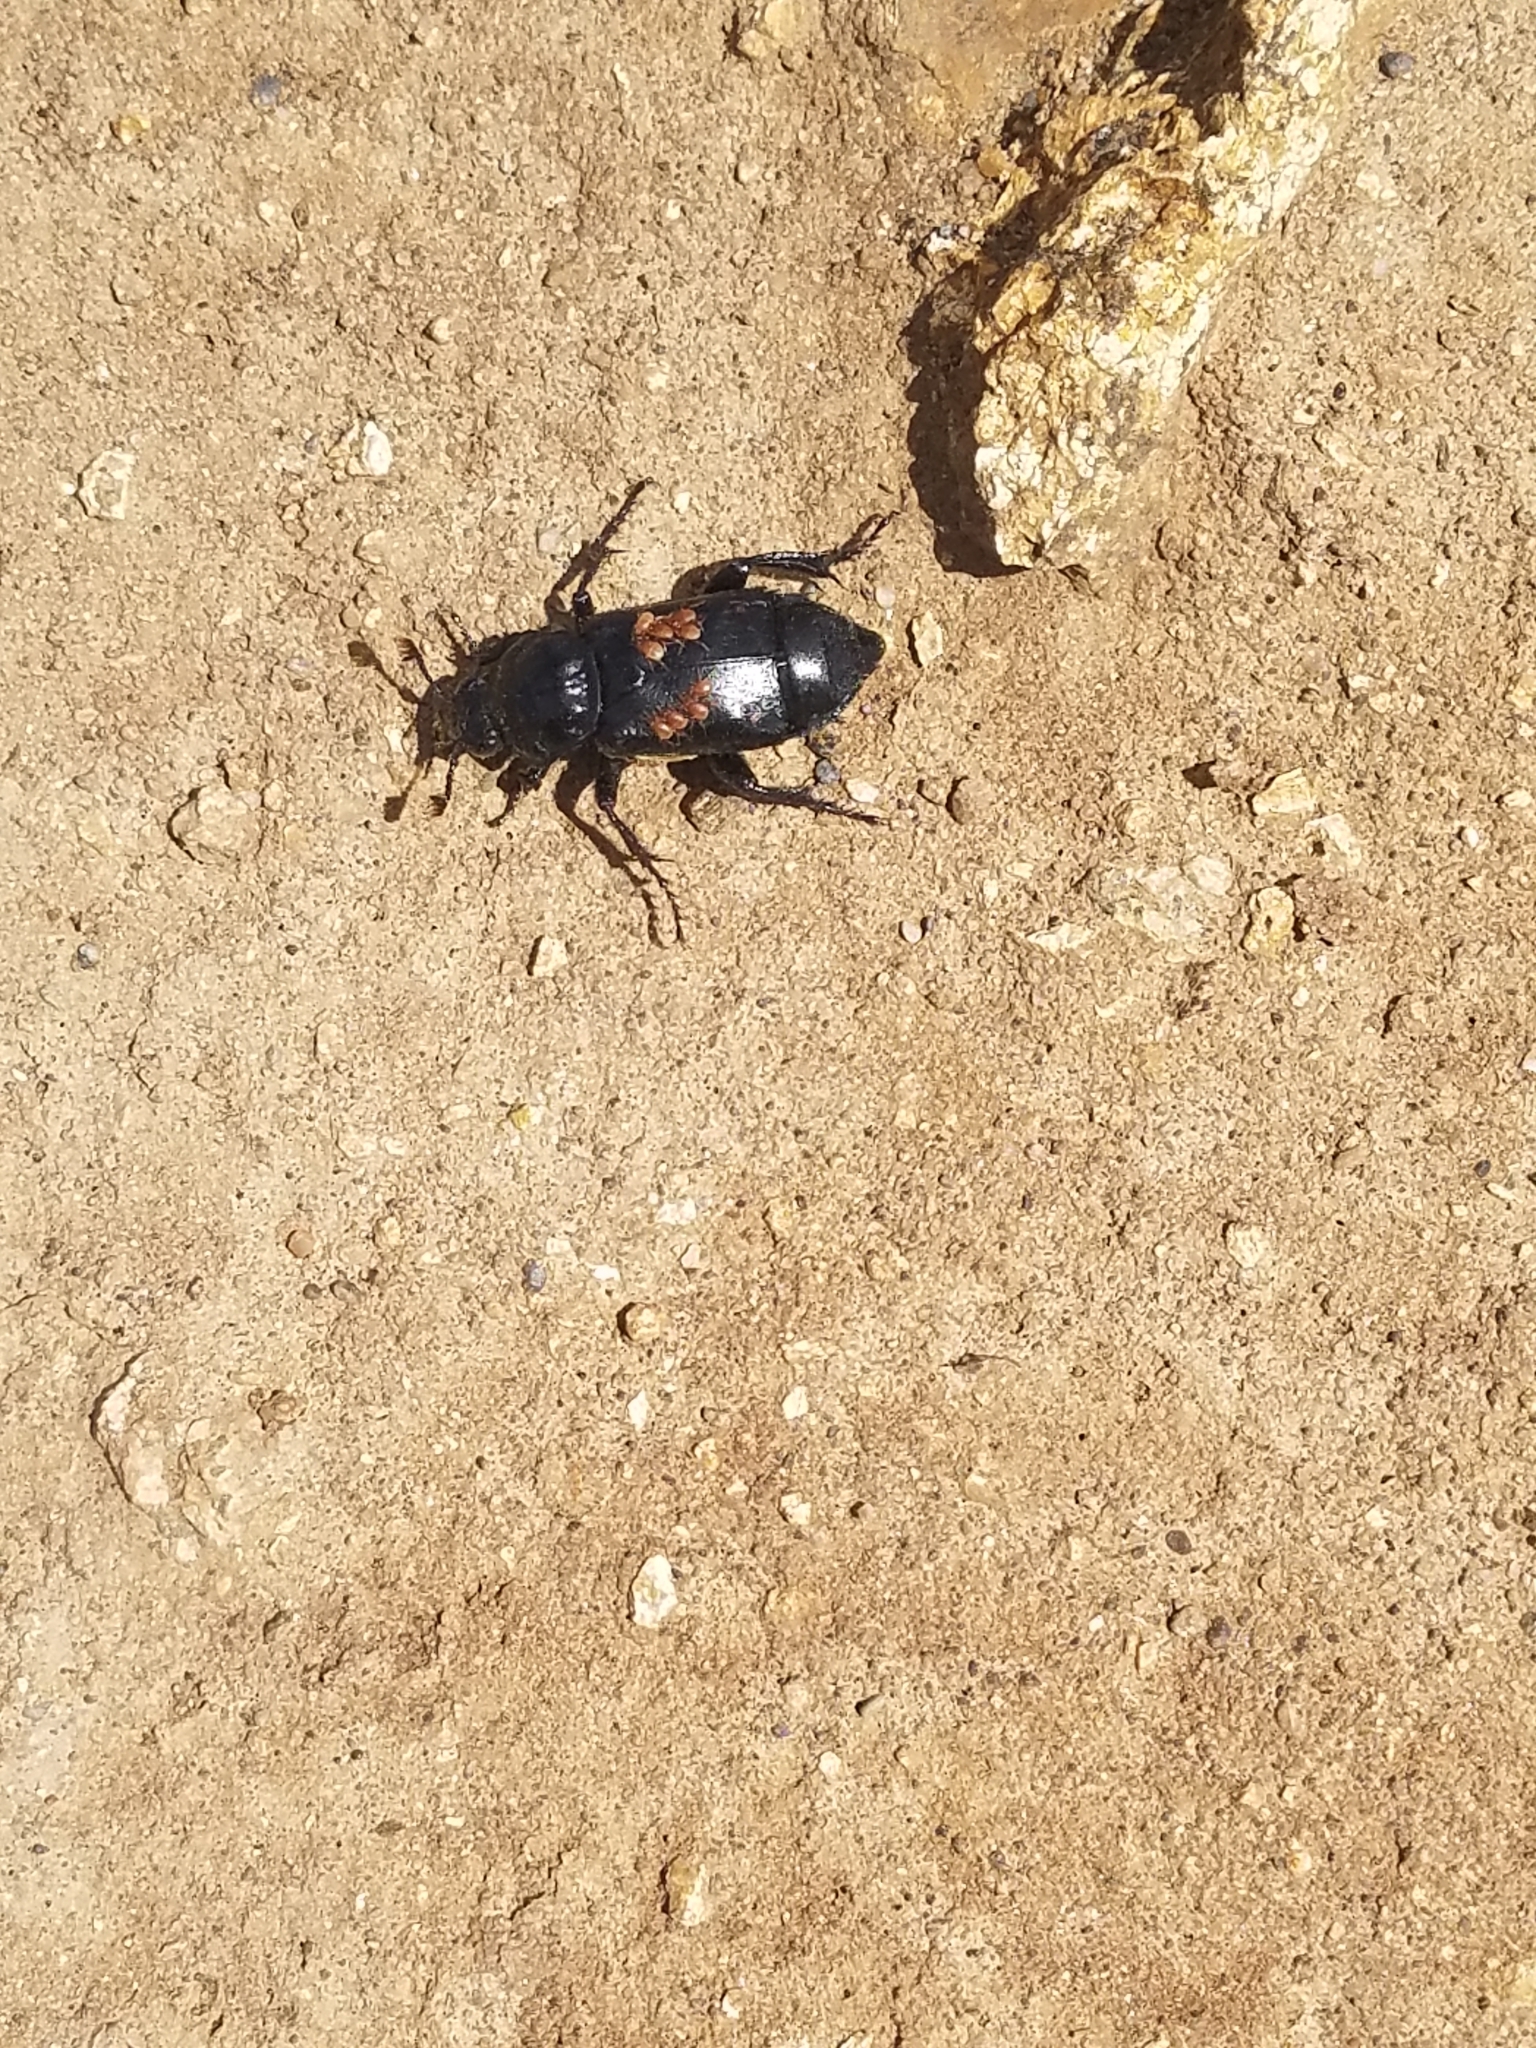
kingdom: Animalia
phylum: Arthropoda
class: Insecta
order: Coleoptera
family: Staphylinidae
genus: Nicrophorus
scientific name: Nicrophorus guttula
